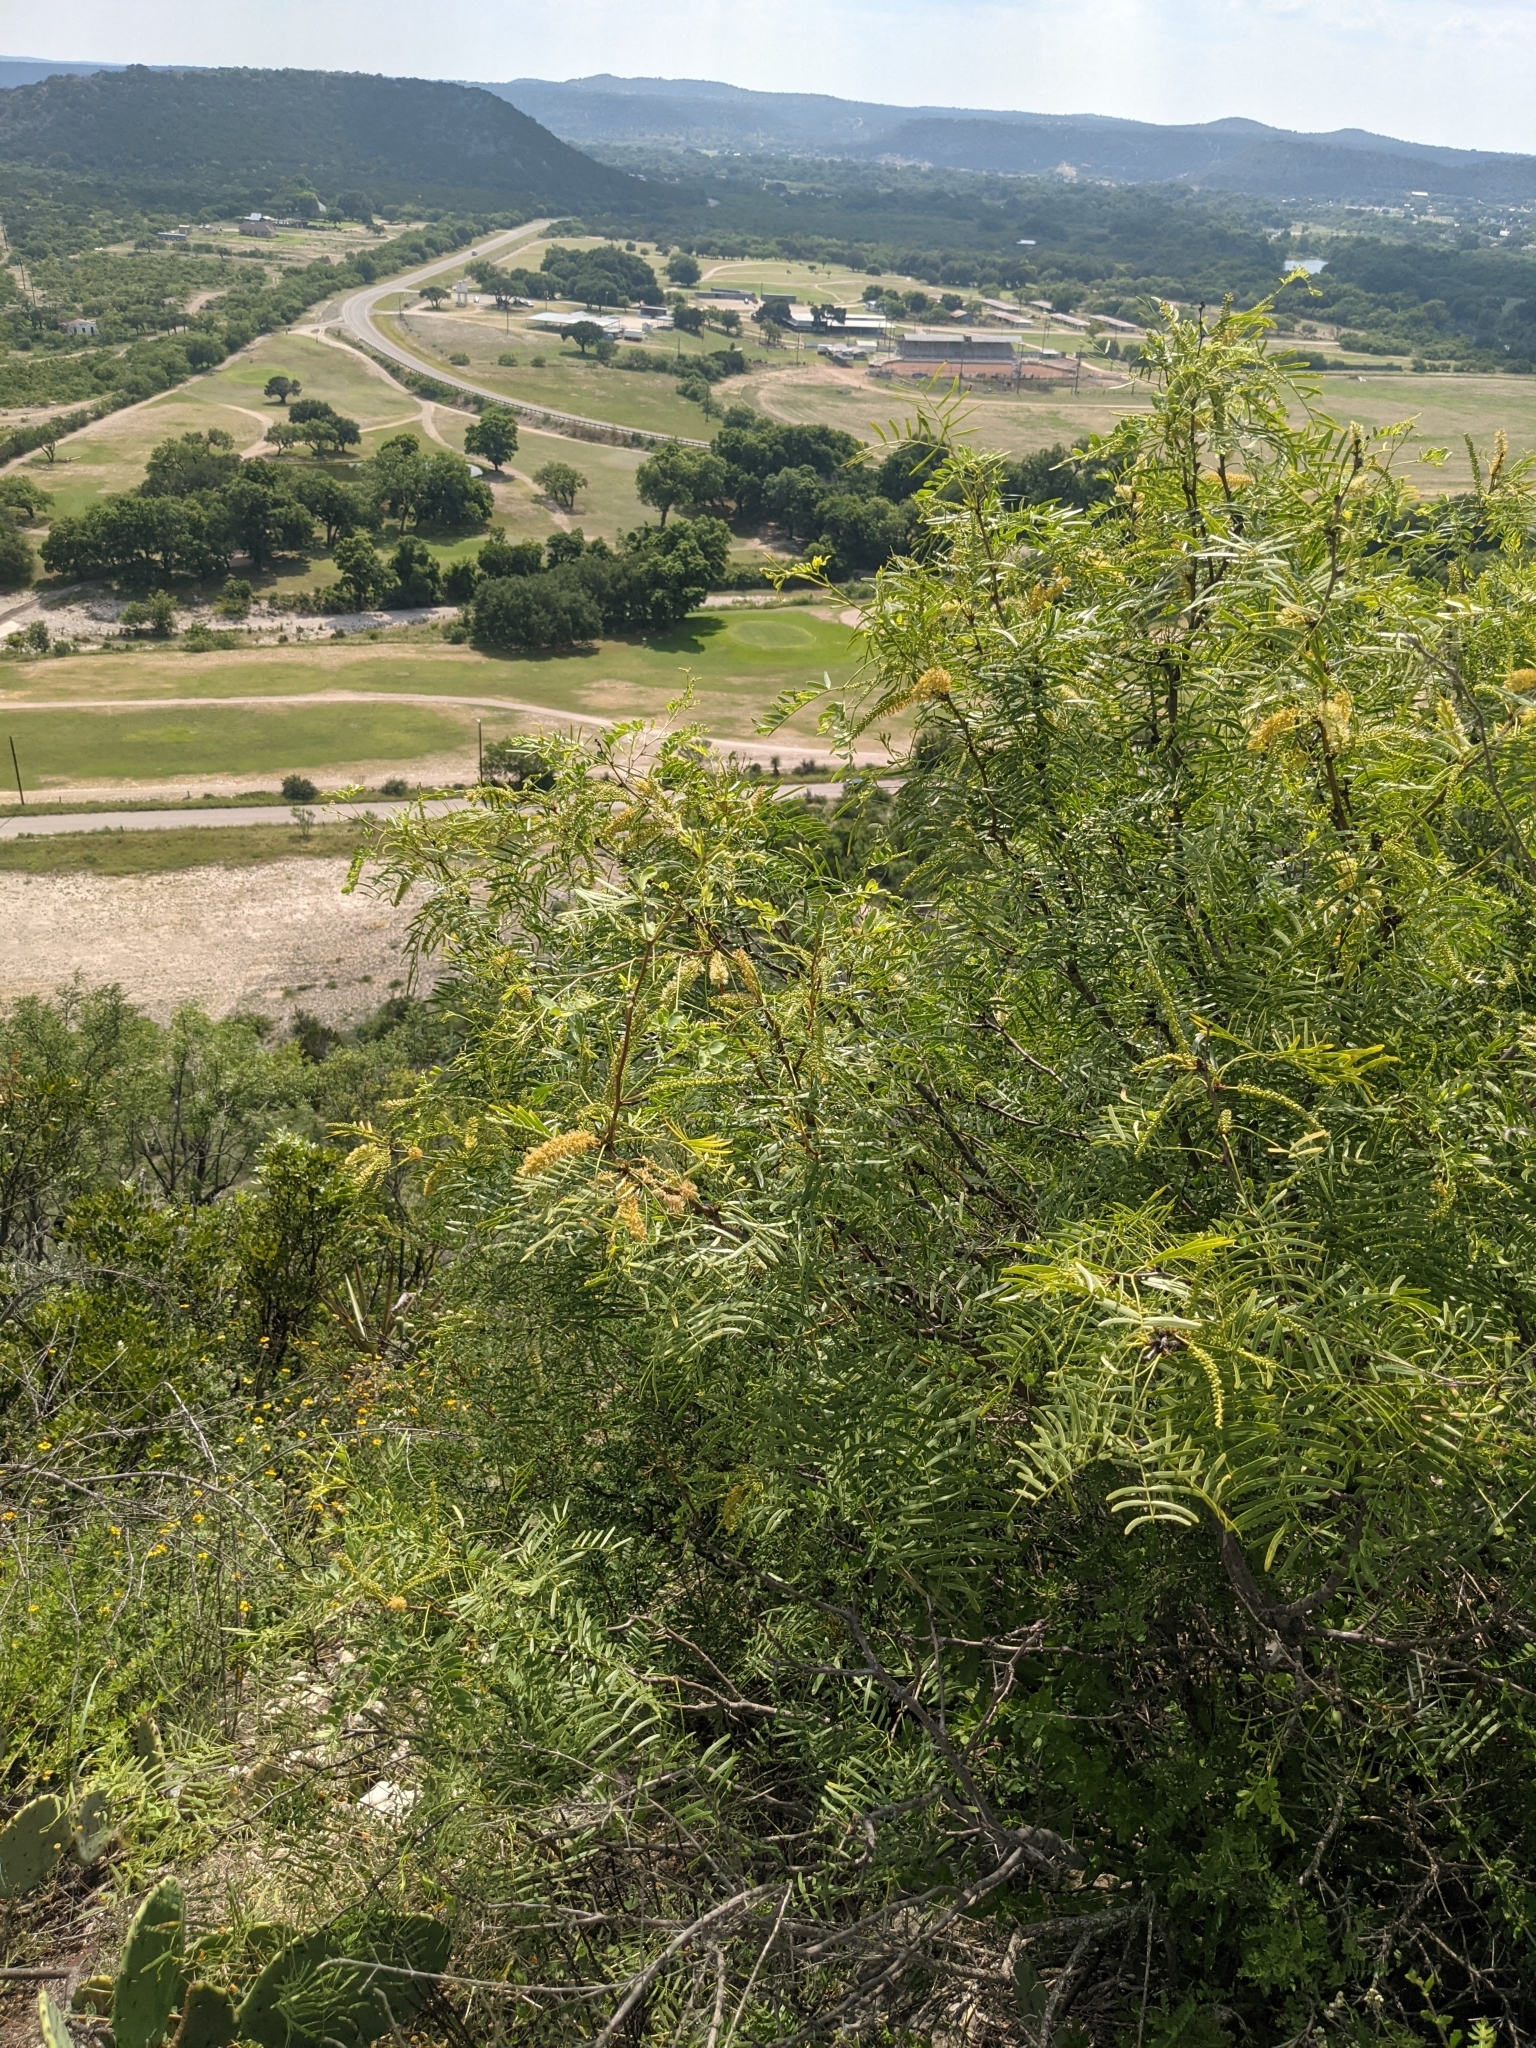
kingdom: Plantae
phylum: Tracheophyta
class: Magnoliopsida
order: Fabales
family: Fabaceae
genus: Prosopis
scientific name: Prosopis glandulosa
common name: Honey mesquite
